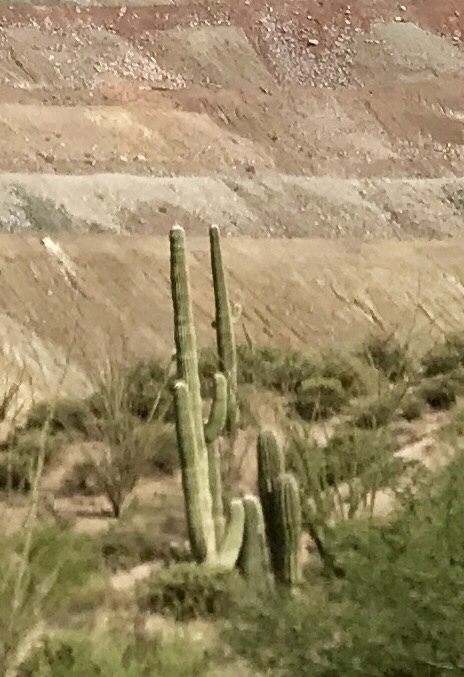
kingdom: Plantae
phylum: Tracheophyta
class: Magnoliopsida
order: Caryophyllales
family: Cactaceae
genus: Carnegiea
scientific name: Carnegiea gigantea
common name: Saguaro
